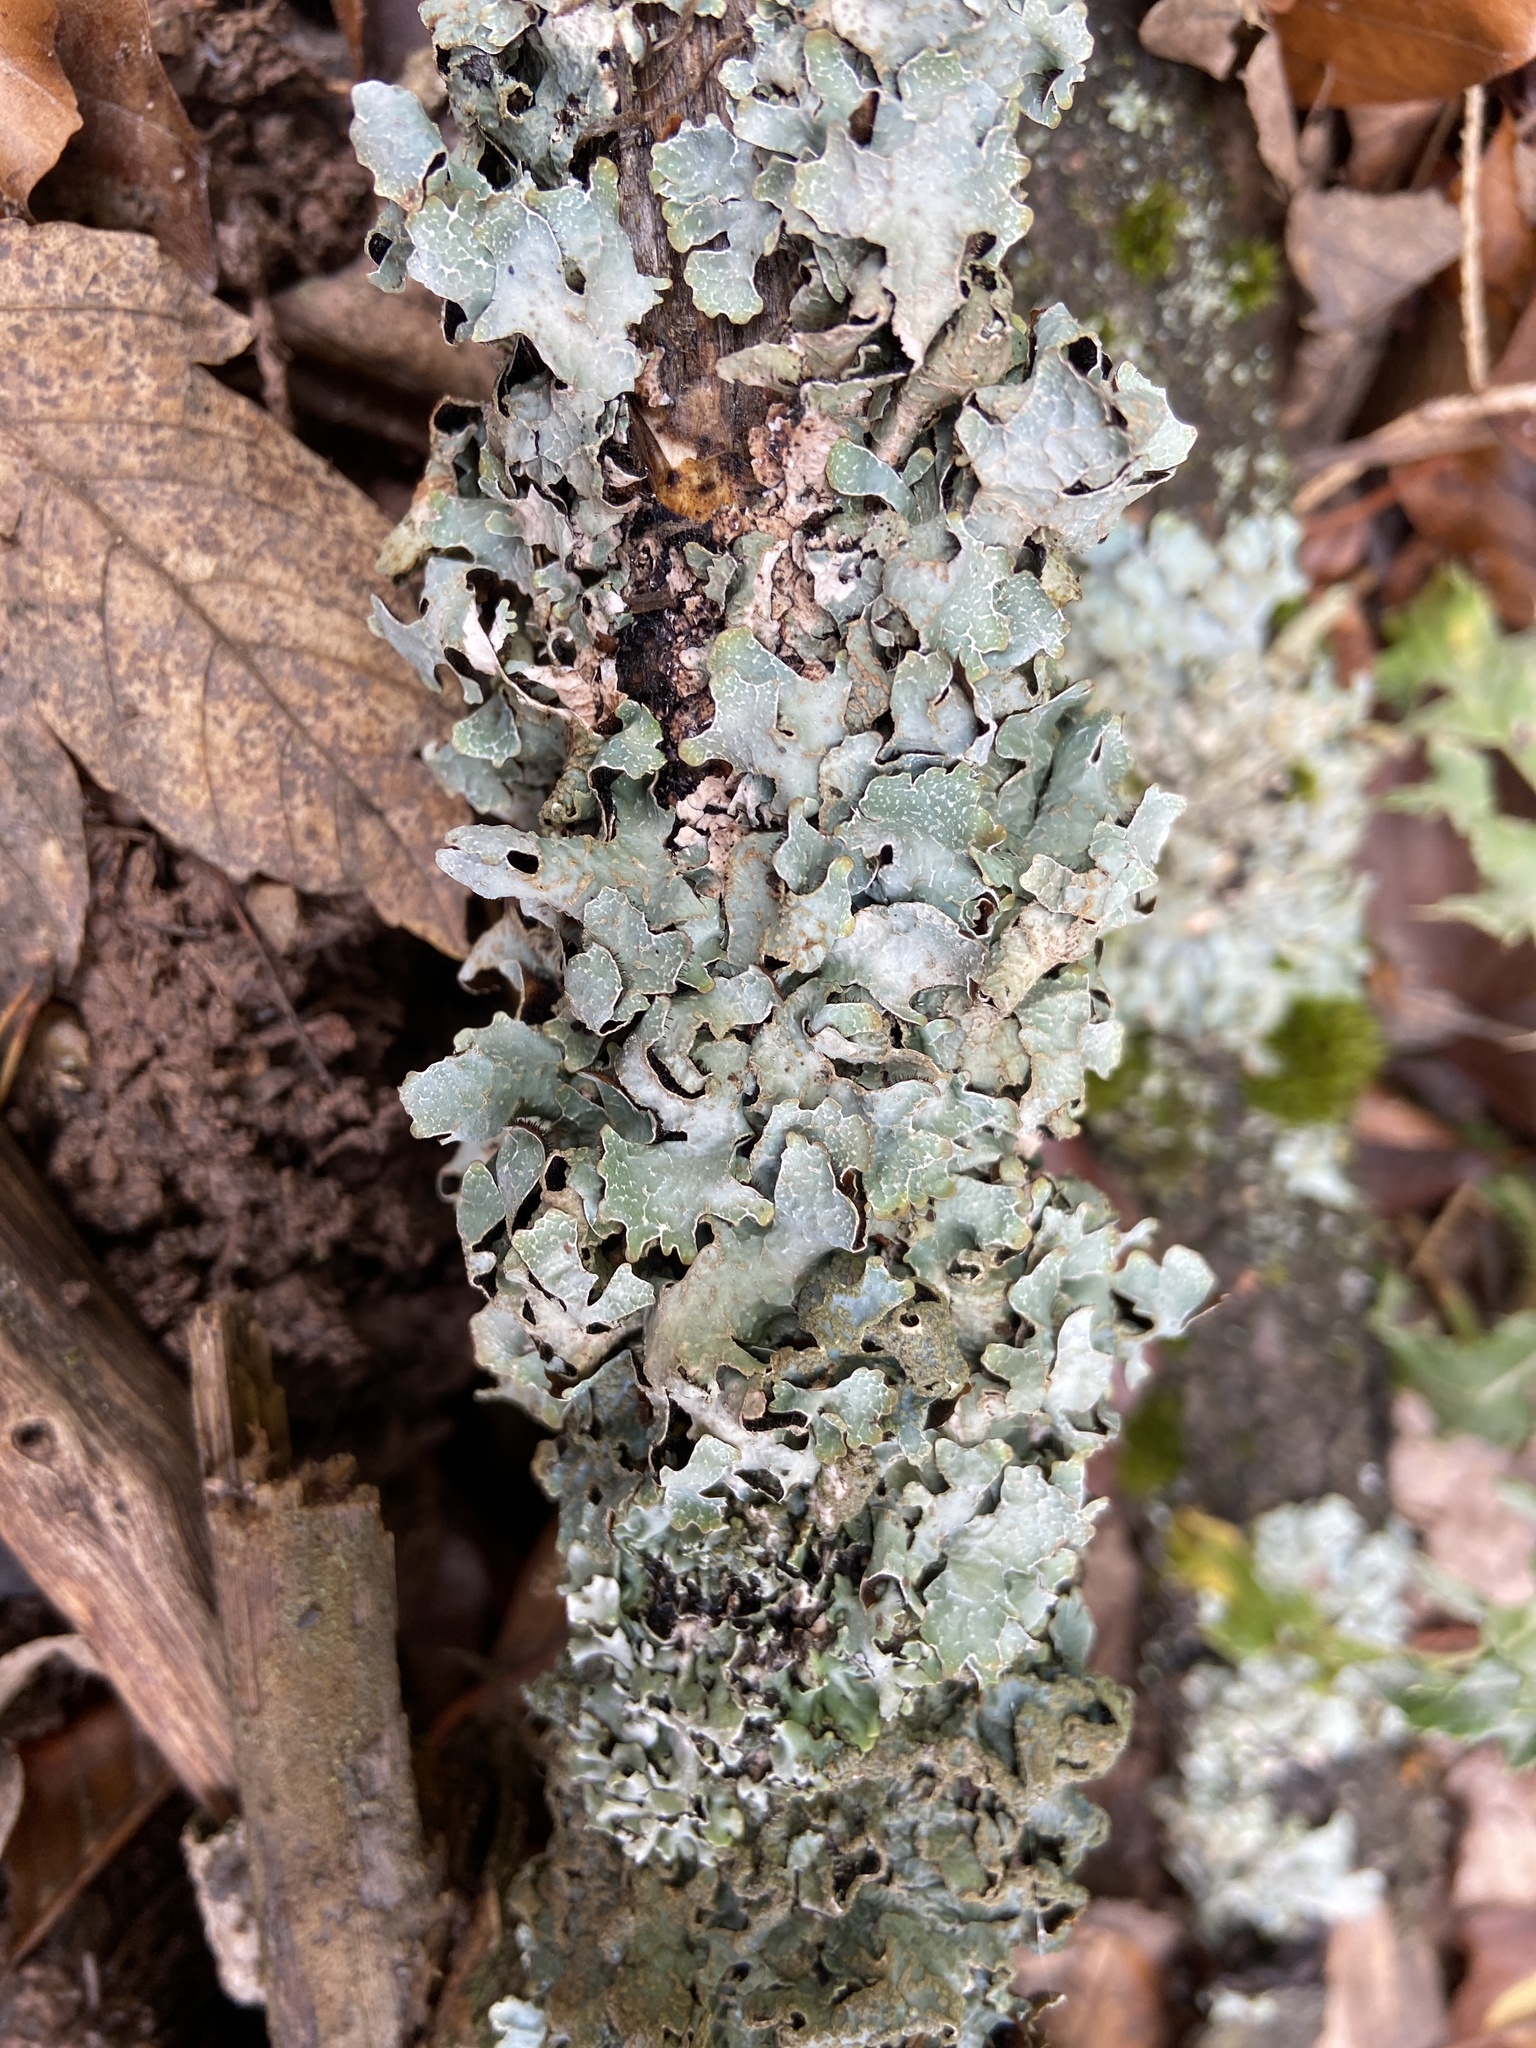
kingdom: Fungi
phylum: Ascomycota
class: Lecanoromycetes
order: Lecanorales
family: Parmeliaceae
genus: Parmelia
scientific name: Parmelia sulcata
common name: Netted shield lichen
